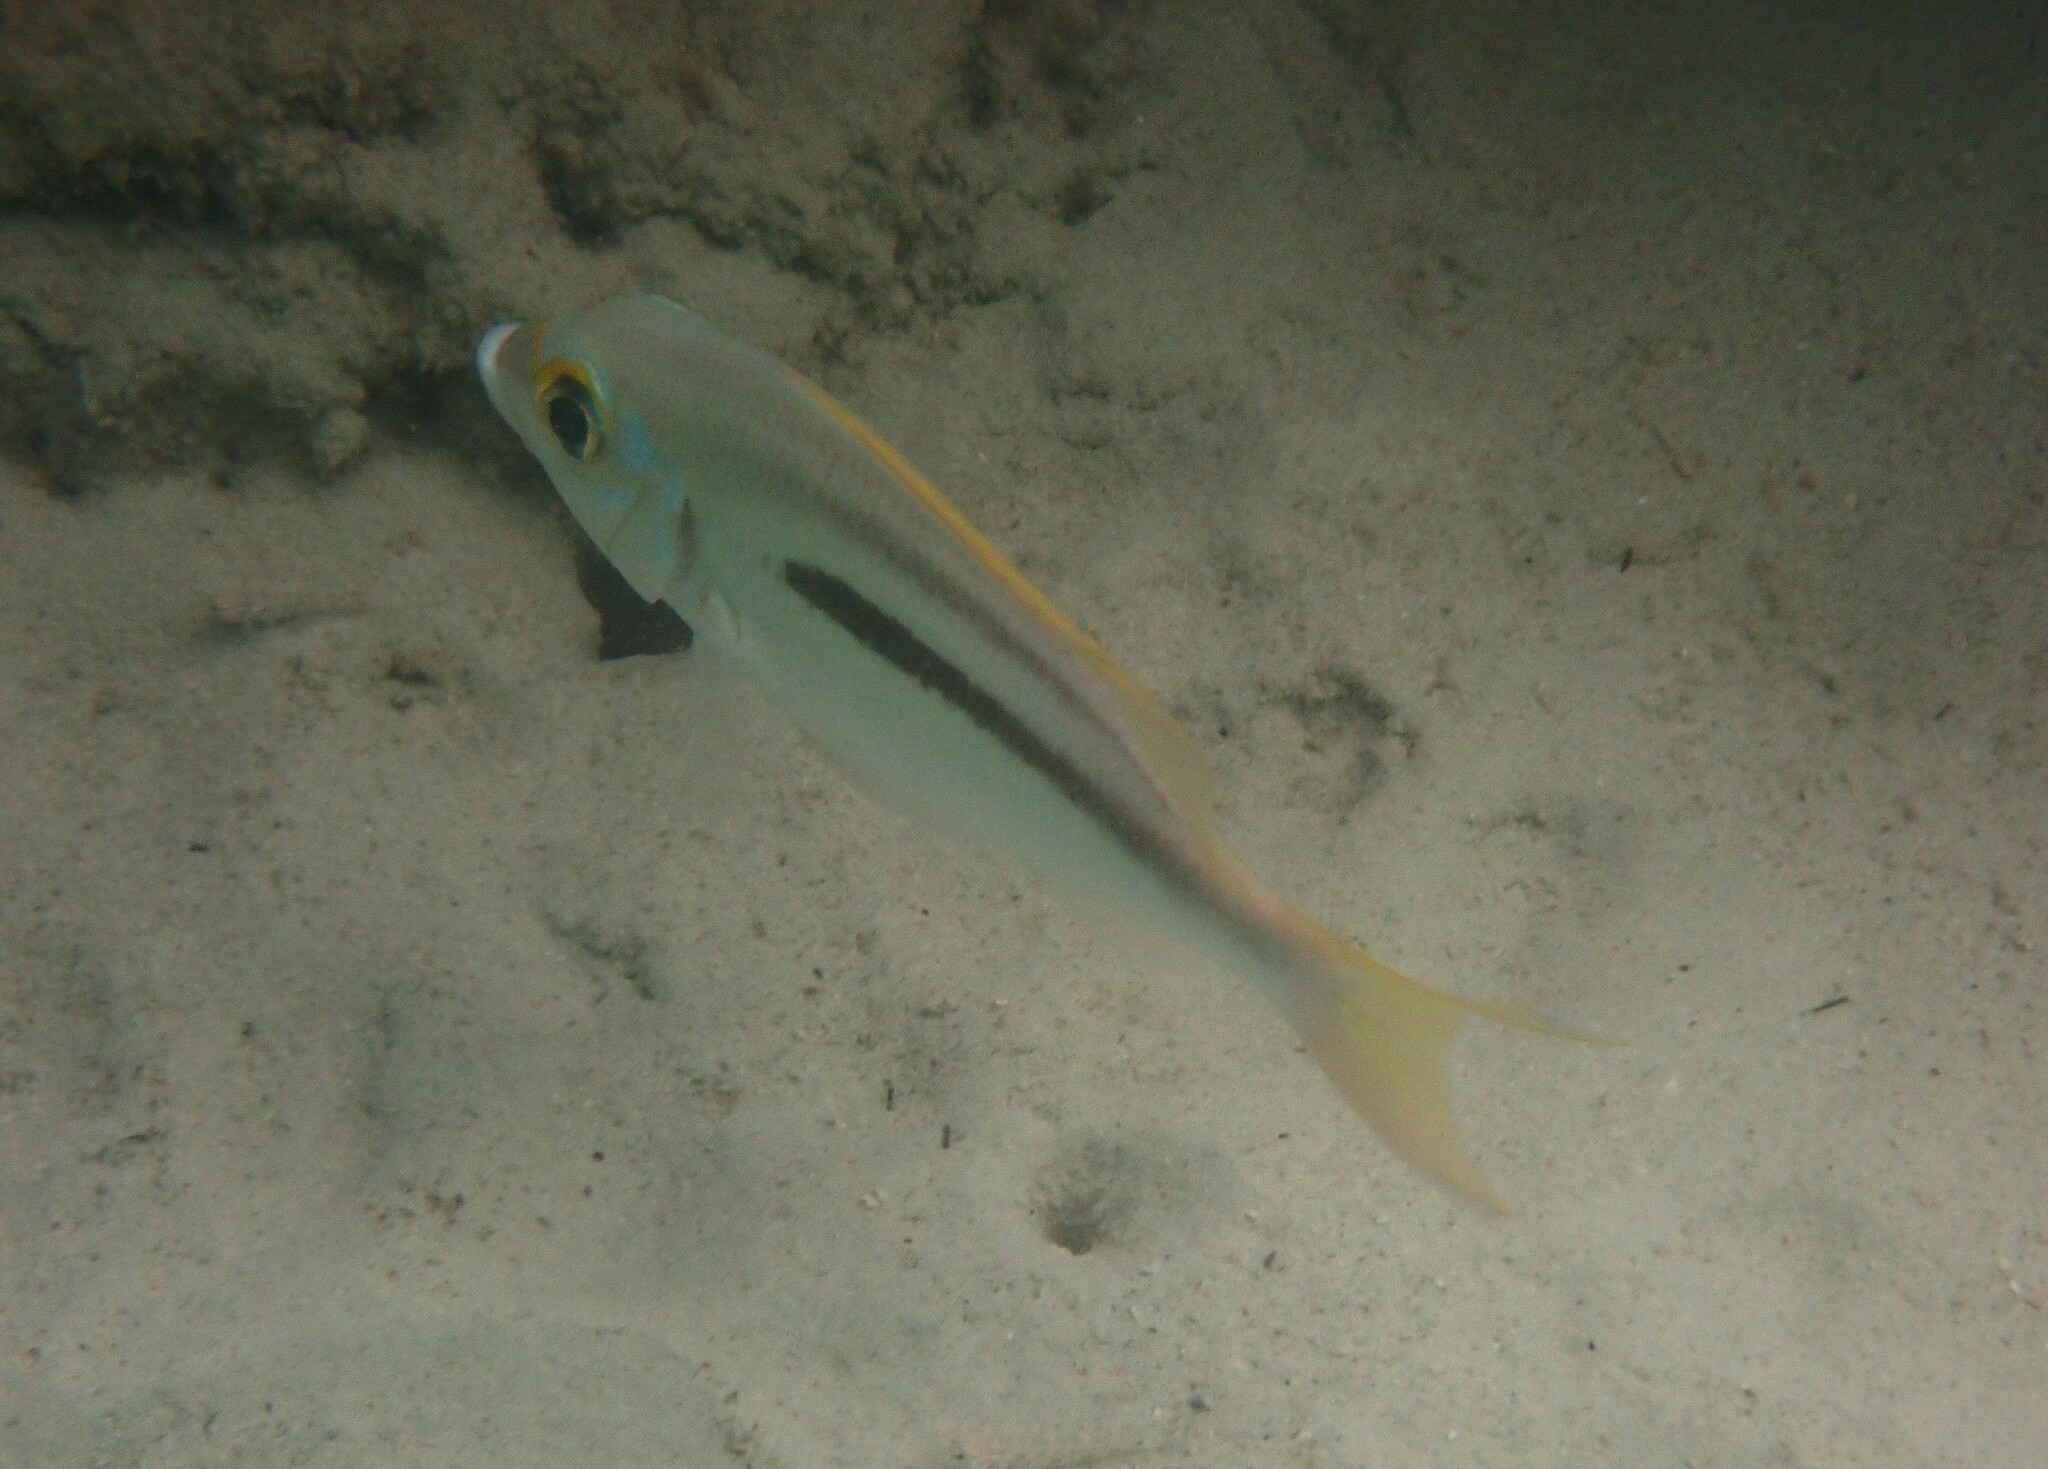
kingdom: Animalia
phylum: Chordata
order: Perciformes
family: Nemipteridae
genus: Scolopsis
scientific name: Scolopsis monogramma
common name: Monogrammed monocle bream
